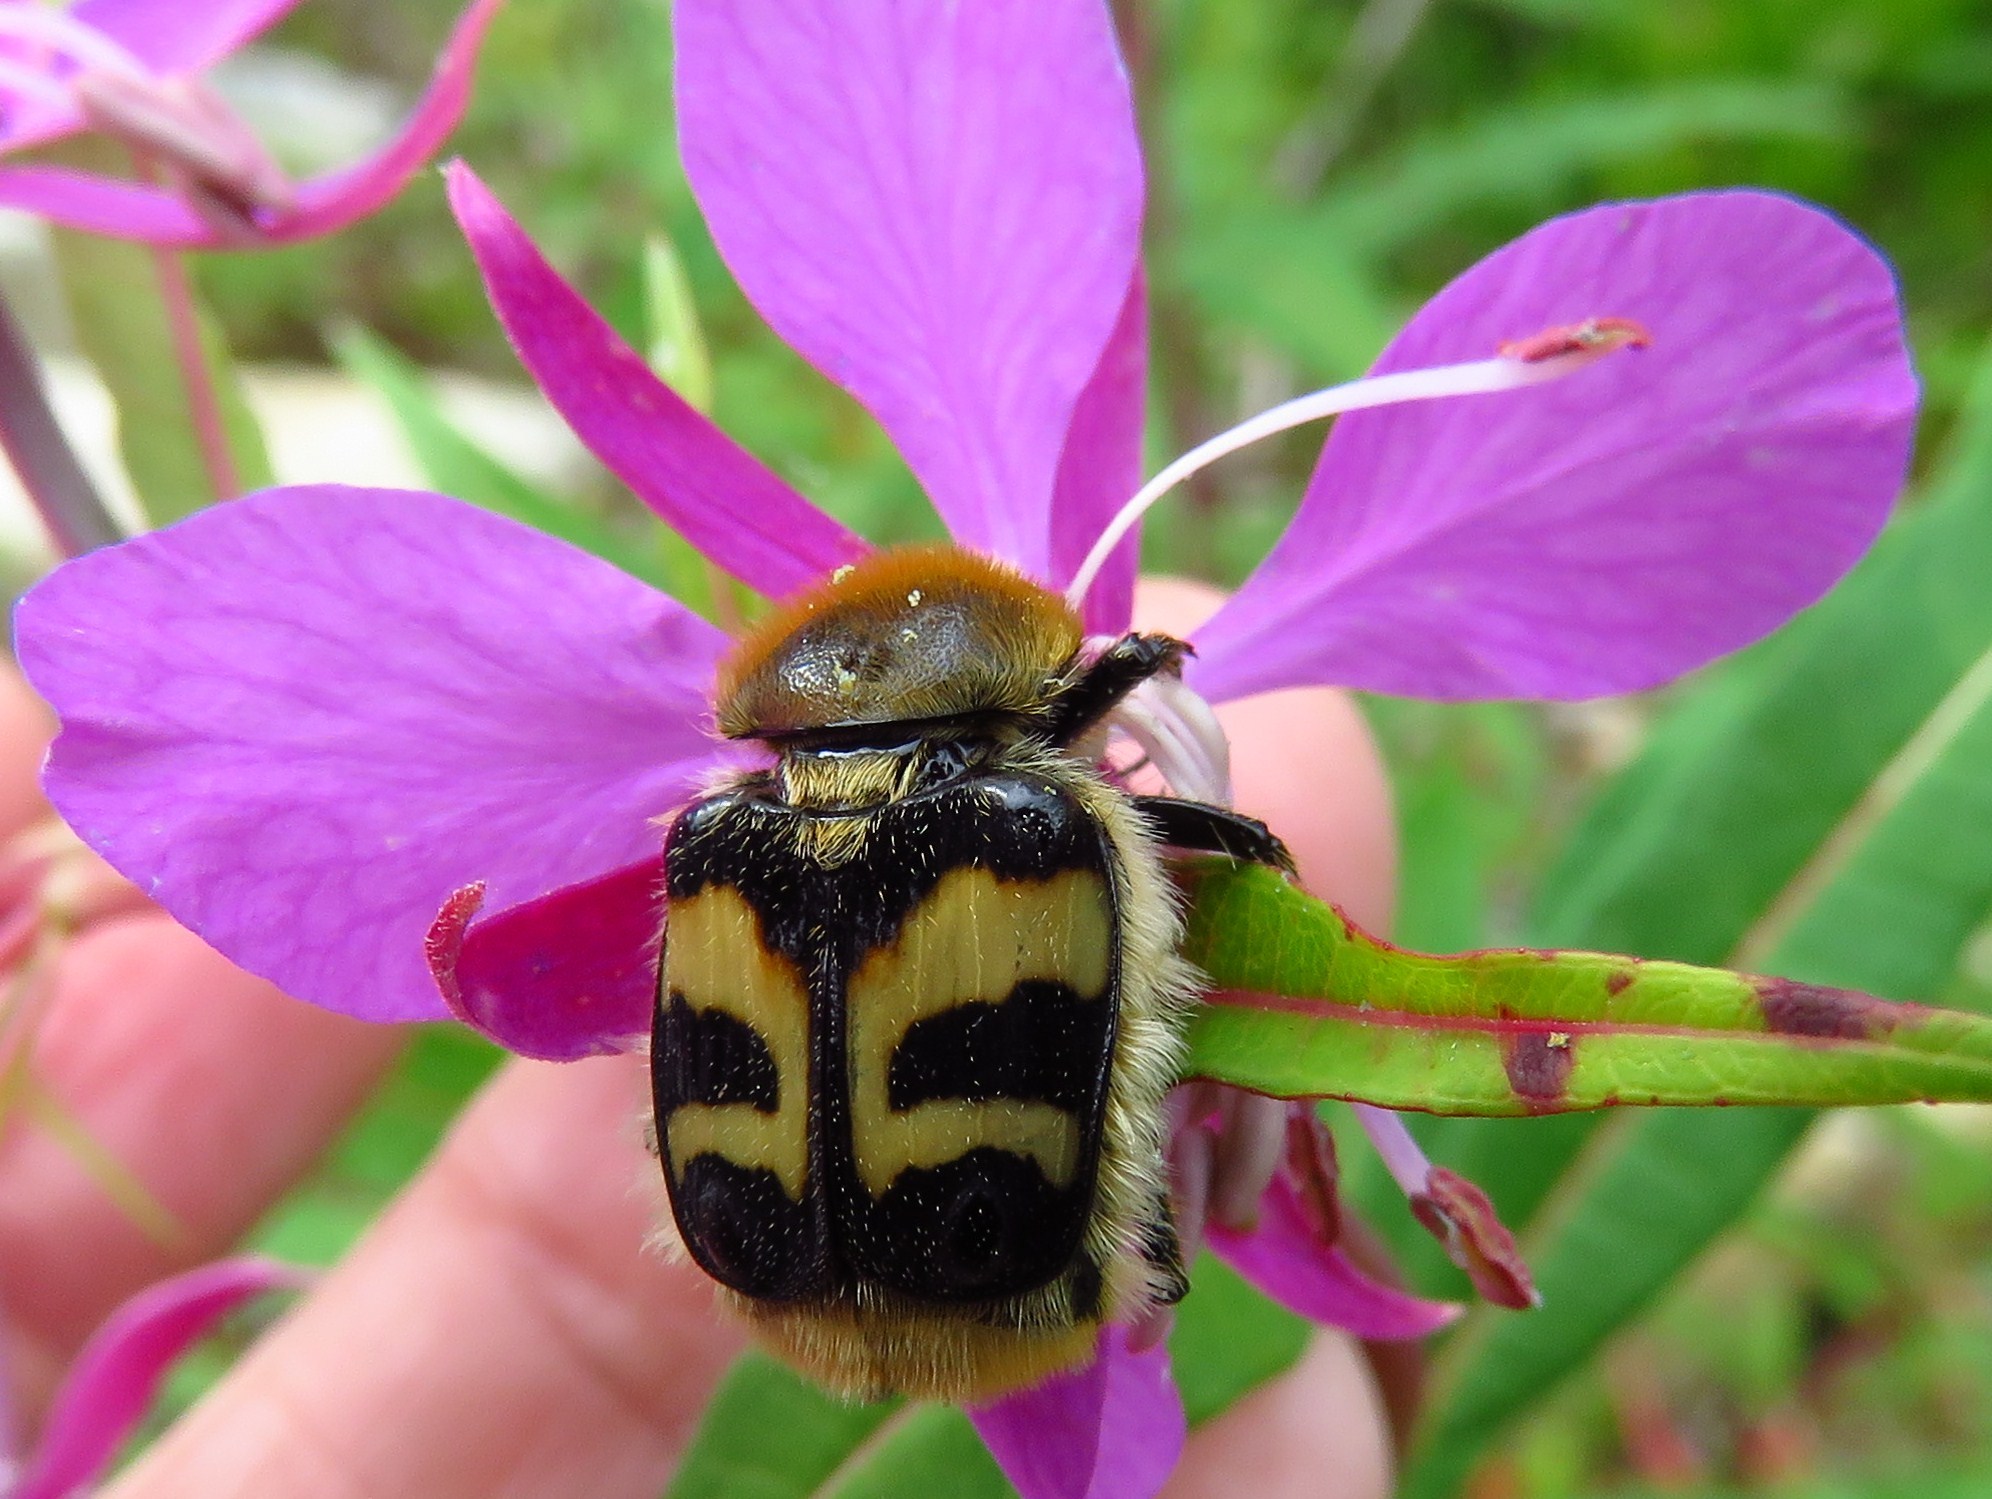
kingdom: Animalia
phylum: Arthropoda
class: Insecta
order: Coleoptera
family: Scarabaeidae
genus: Trichius
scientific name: Trichius fasciatus
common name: Bee beetle
